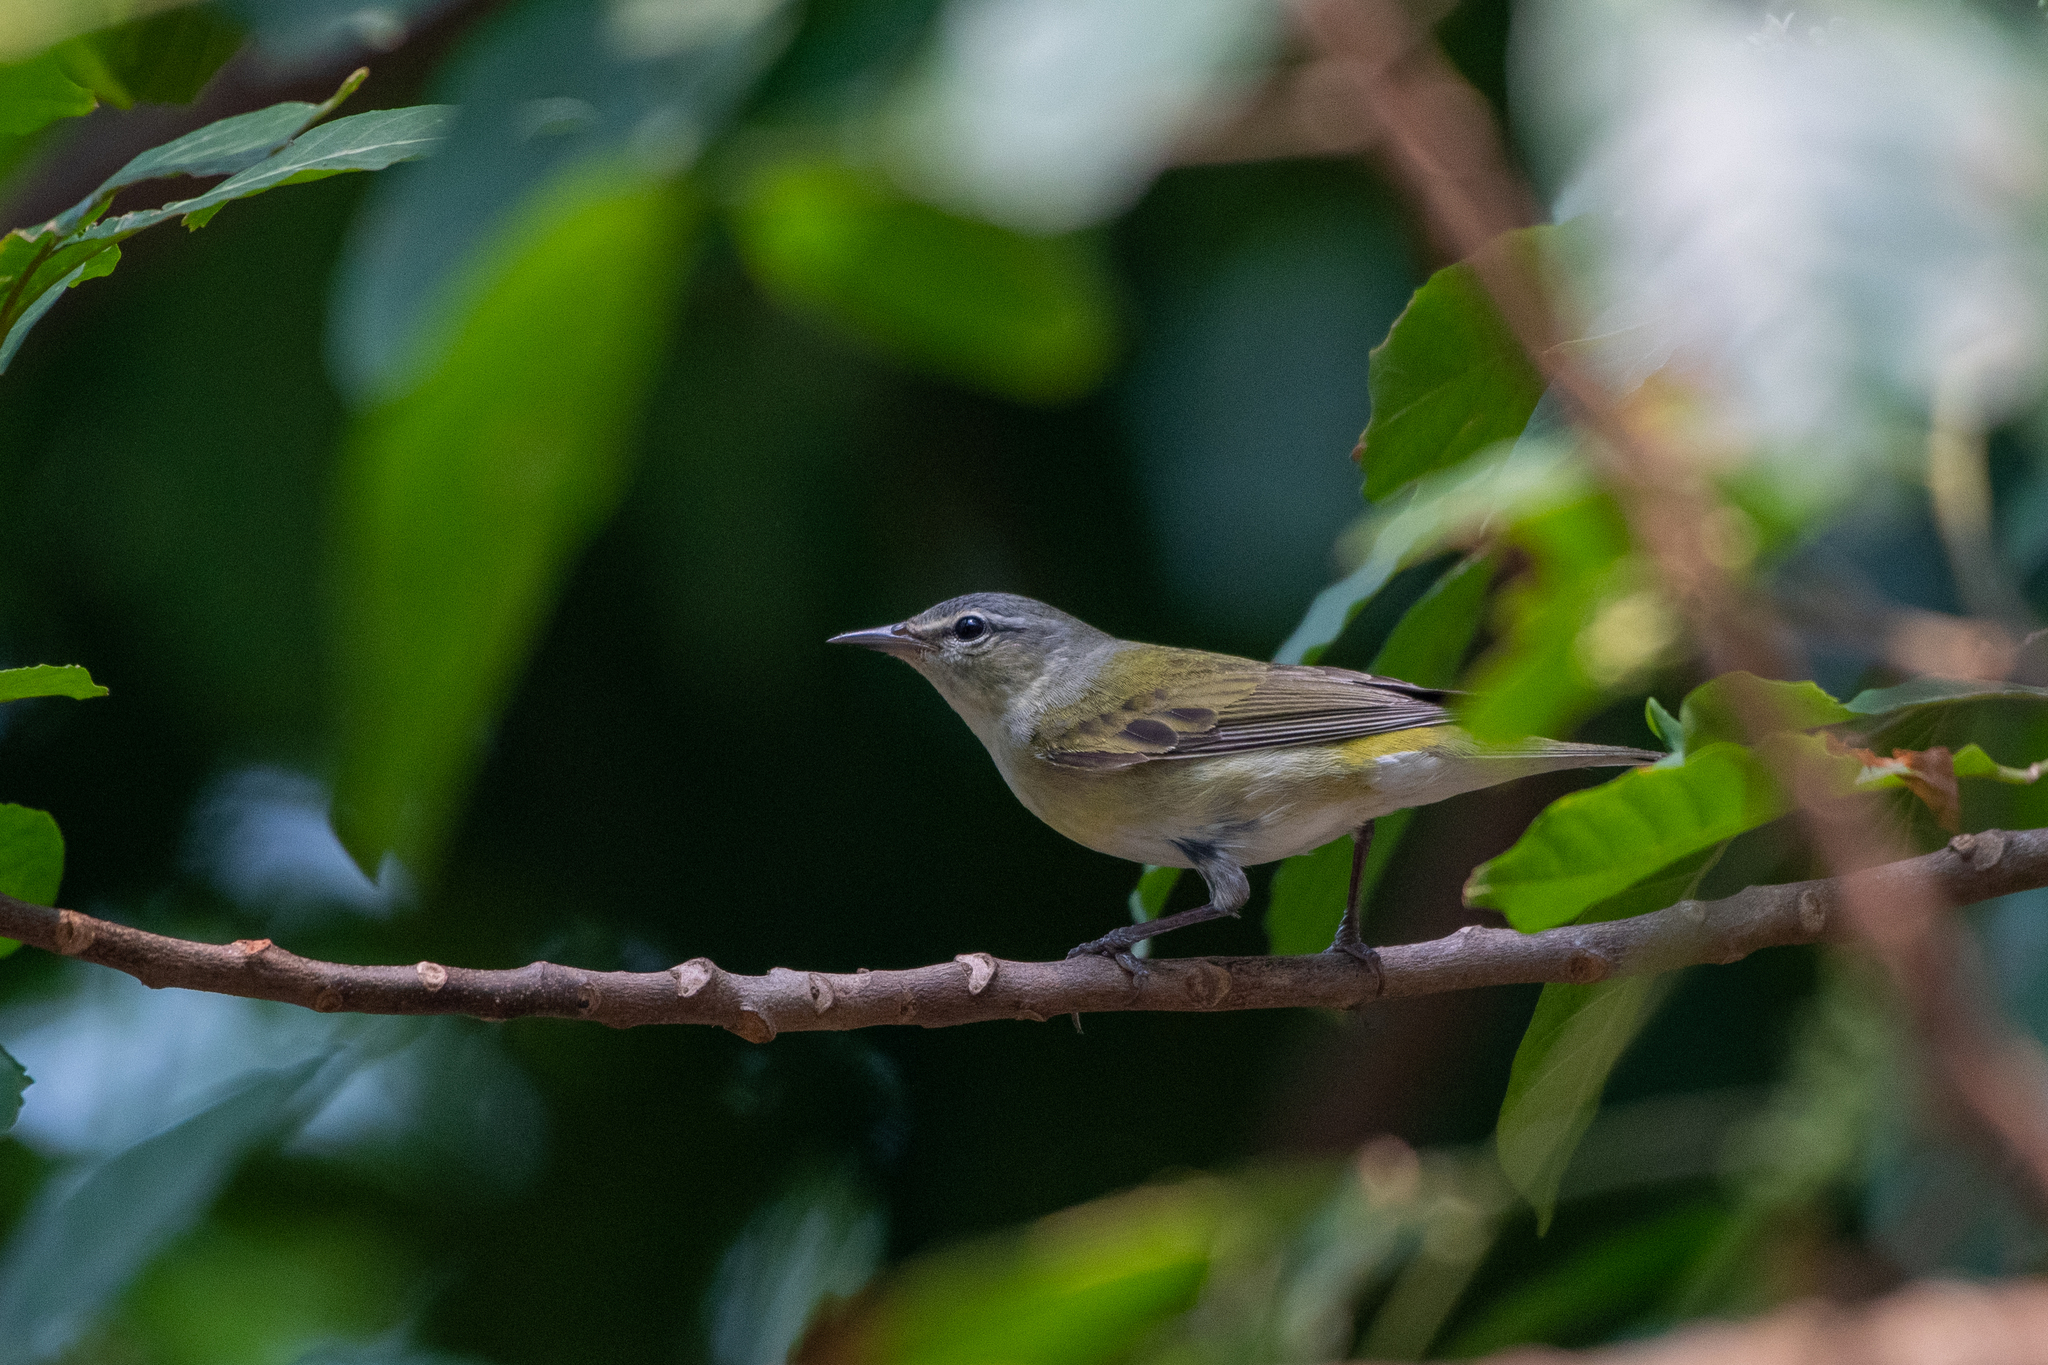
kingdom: Animalia
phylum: Chordata
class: Aves
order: Passeriformes
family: Parulidae
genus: Leiothlypis
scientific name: Leiothlypis peregrina
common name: Tennessee warbler
